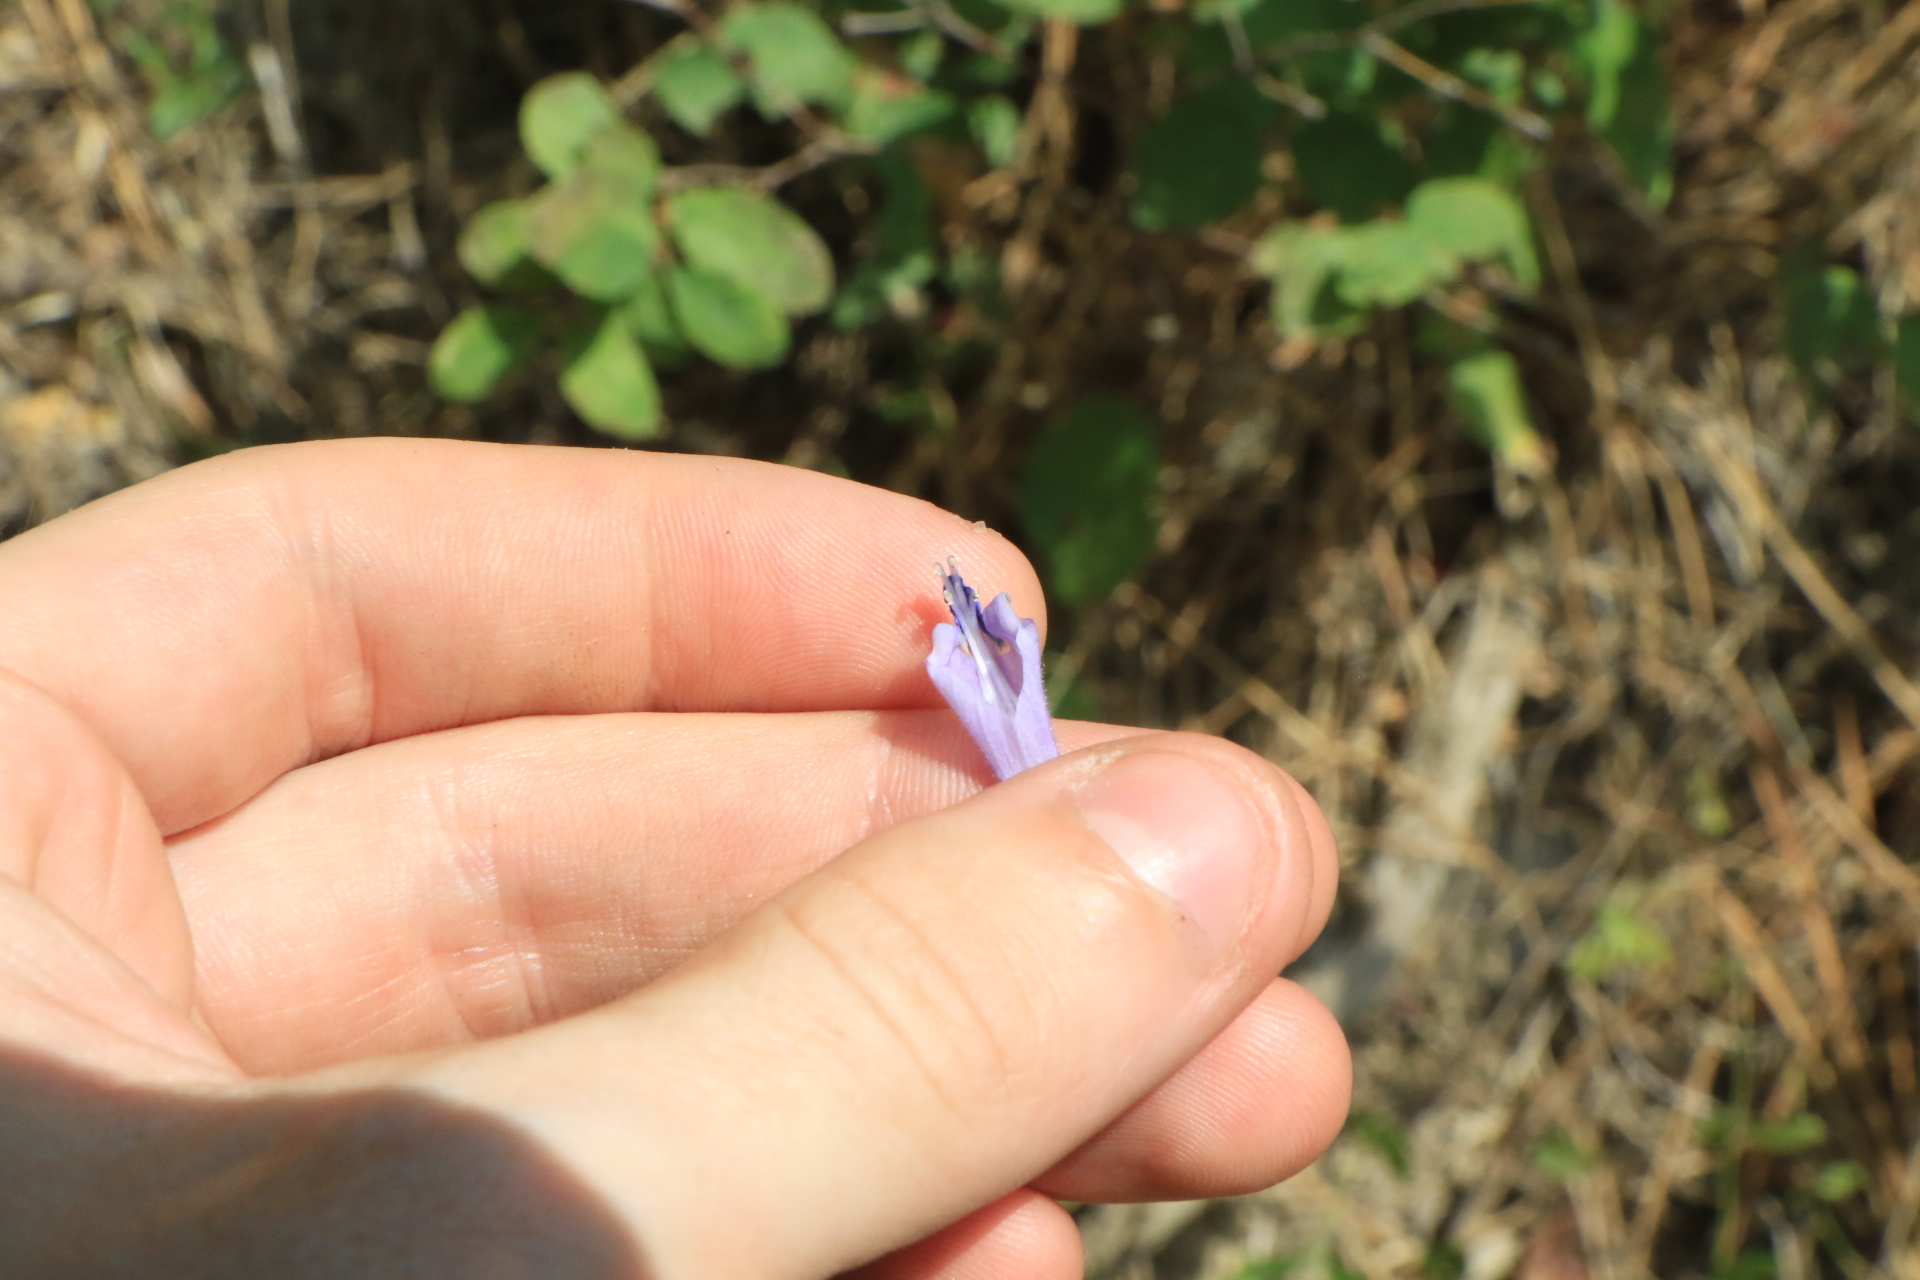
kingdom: Plantae
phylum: Tracheophyta
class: Magnoliopsida
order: Lamiales
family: Lamiaceae
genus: Scutellaria
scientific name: Scutellaria angustifolia
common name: Narrow-leaved skullcap
